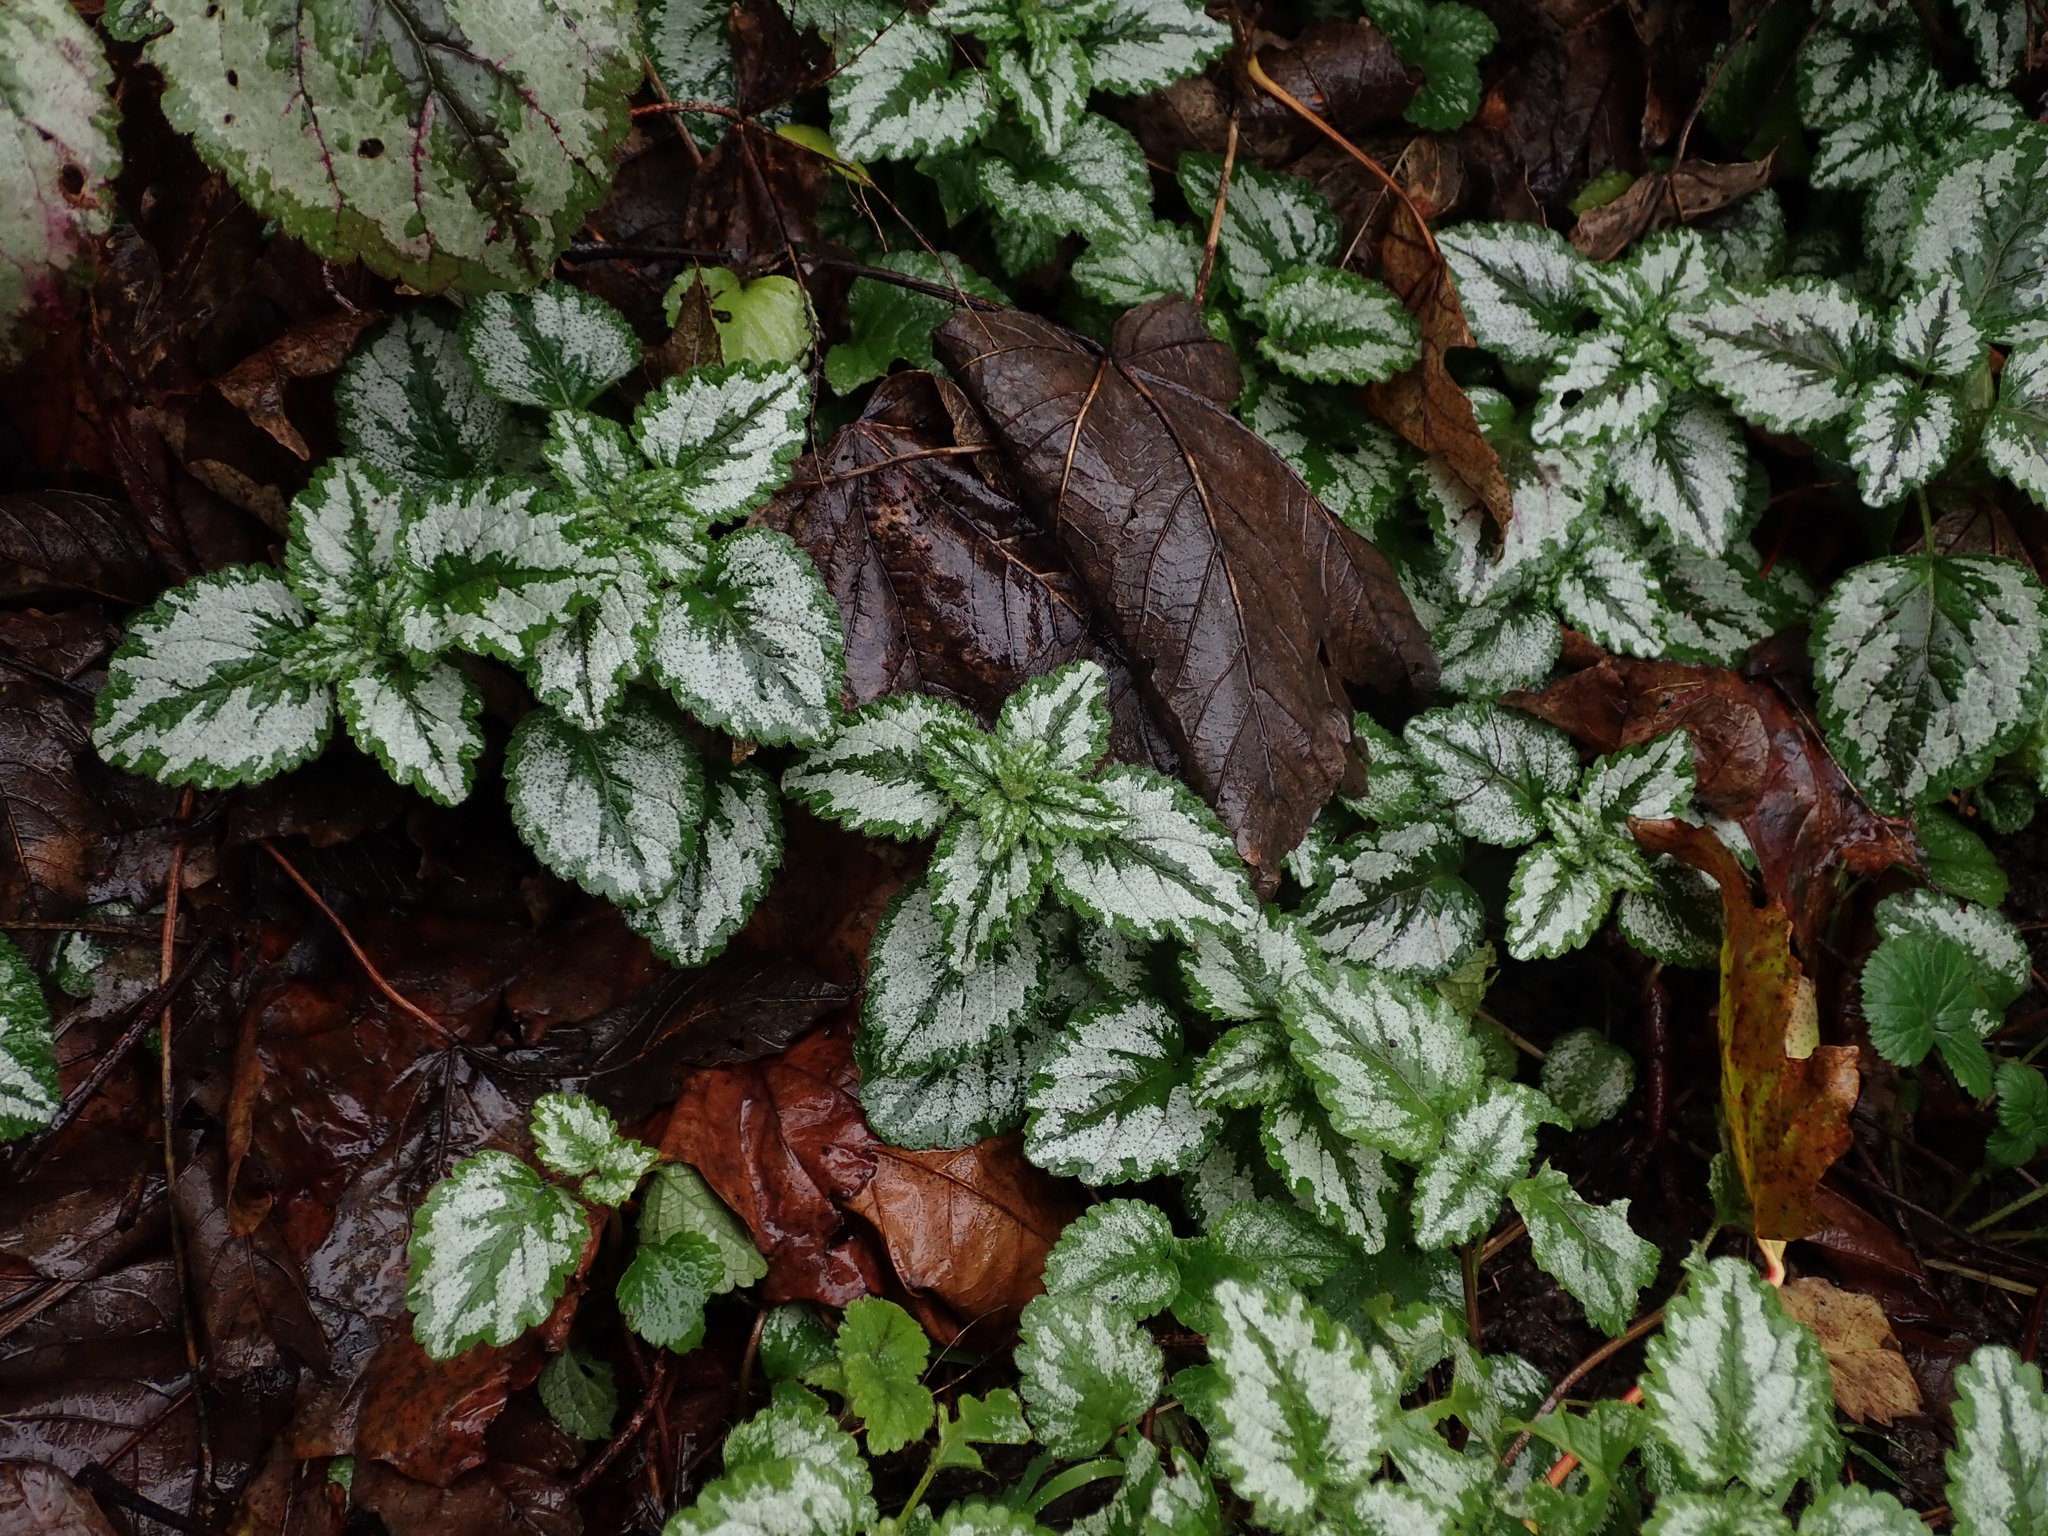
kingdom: Plantae
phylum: Tracheophyta
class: Magnoliopsida
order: Lamiales
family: Lamiaceae
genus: Lamium
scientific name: Lamium galeobdolon
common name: Yellow archangel
